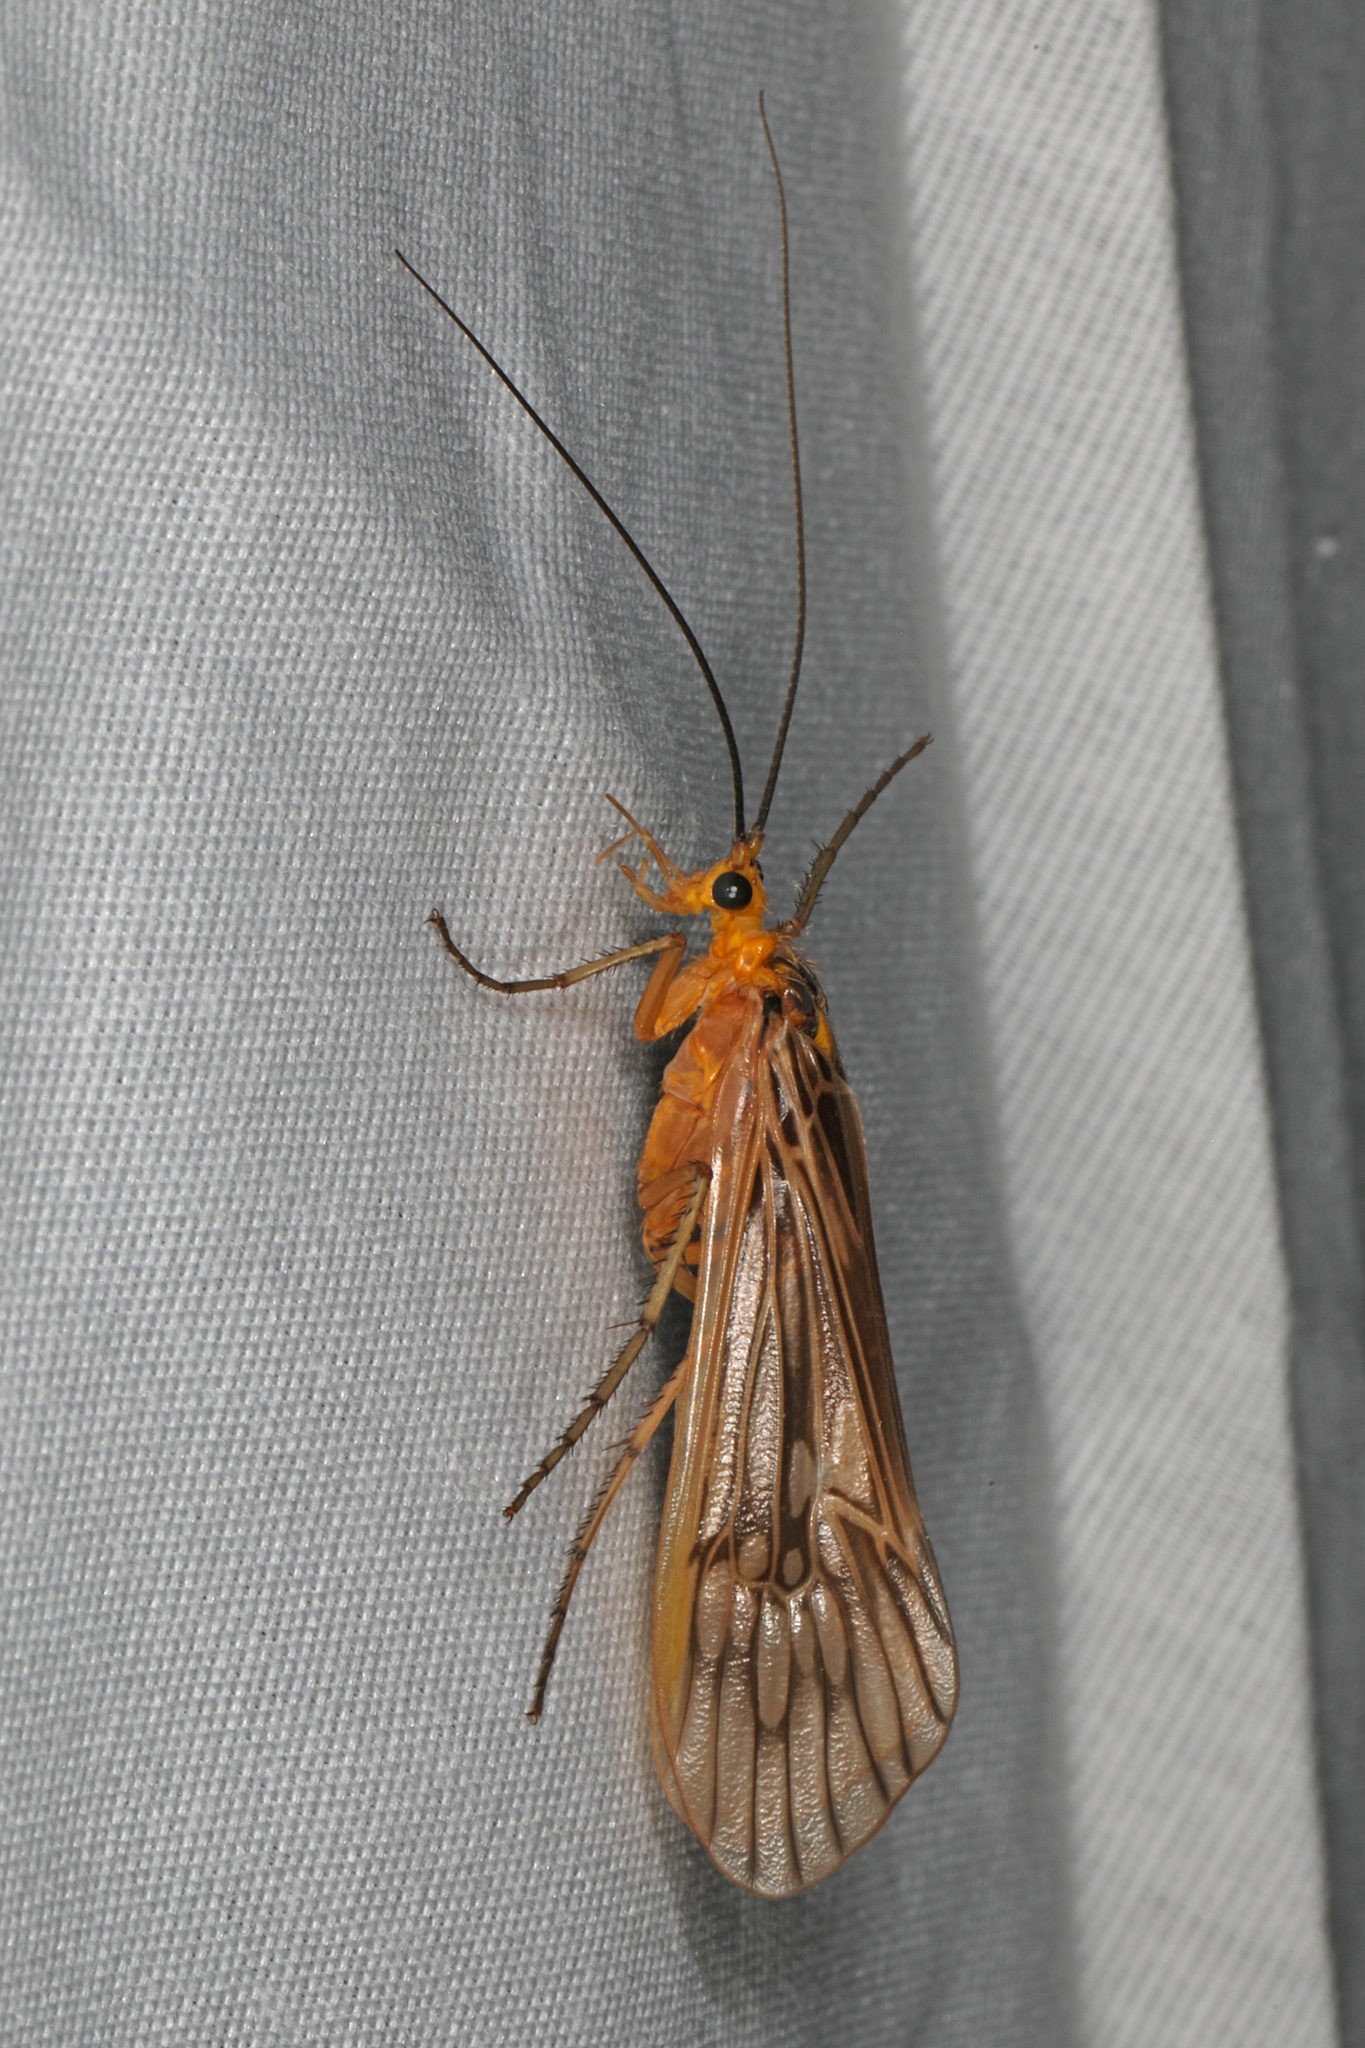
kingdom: Animalia
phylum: Arthropoda
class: Insecta
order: Trichoptera
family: Limnephilidae
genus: Hydatophylax
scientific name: Hydatophylax argus
